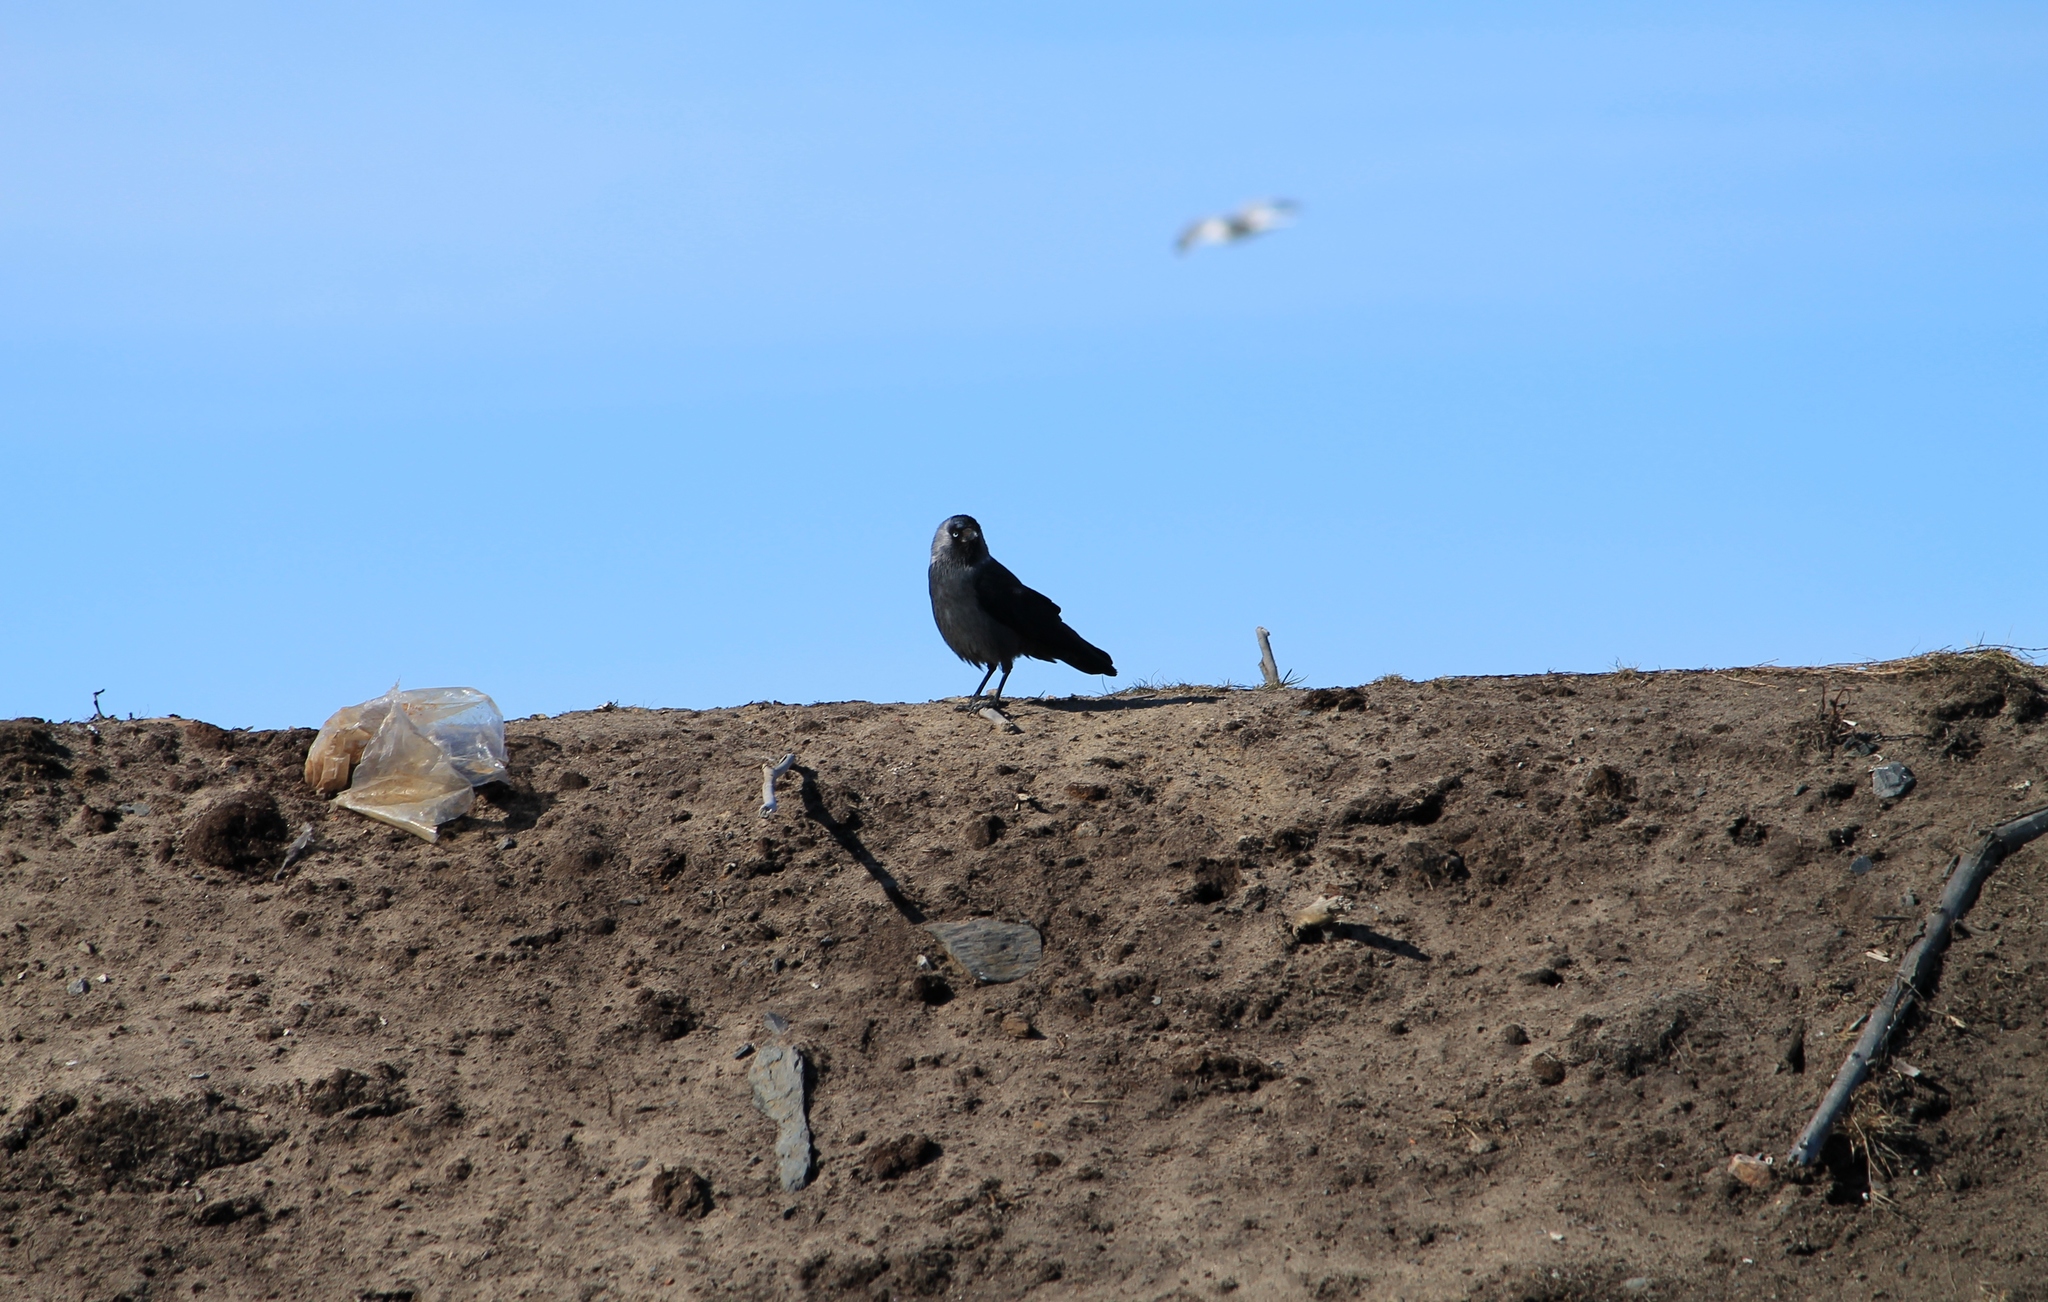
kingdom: Animalia
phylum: Chordata
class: Aves
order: Passeriformes
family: Corvidae
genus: Coloeus
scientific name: Coloeus monedula
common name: Western jackdaw
